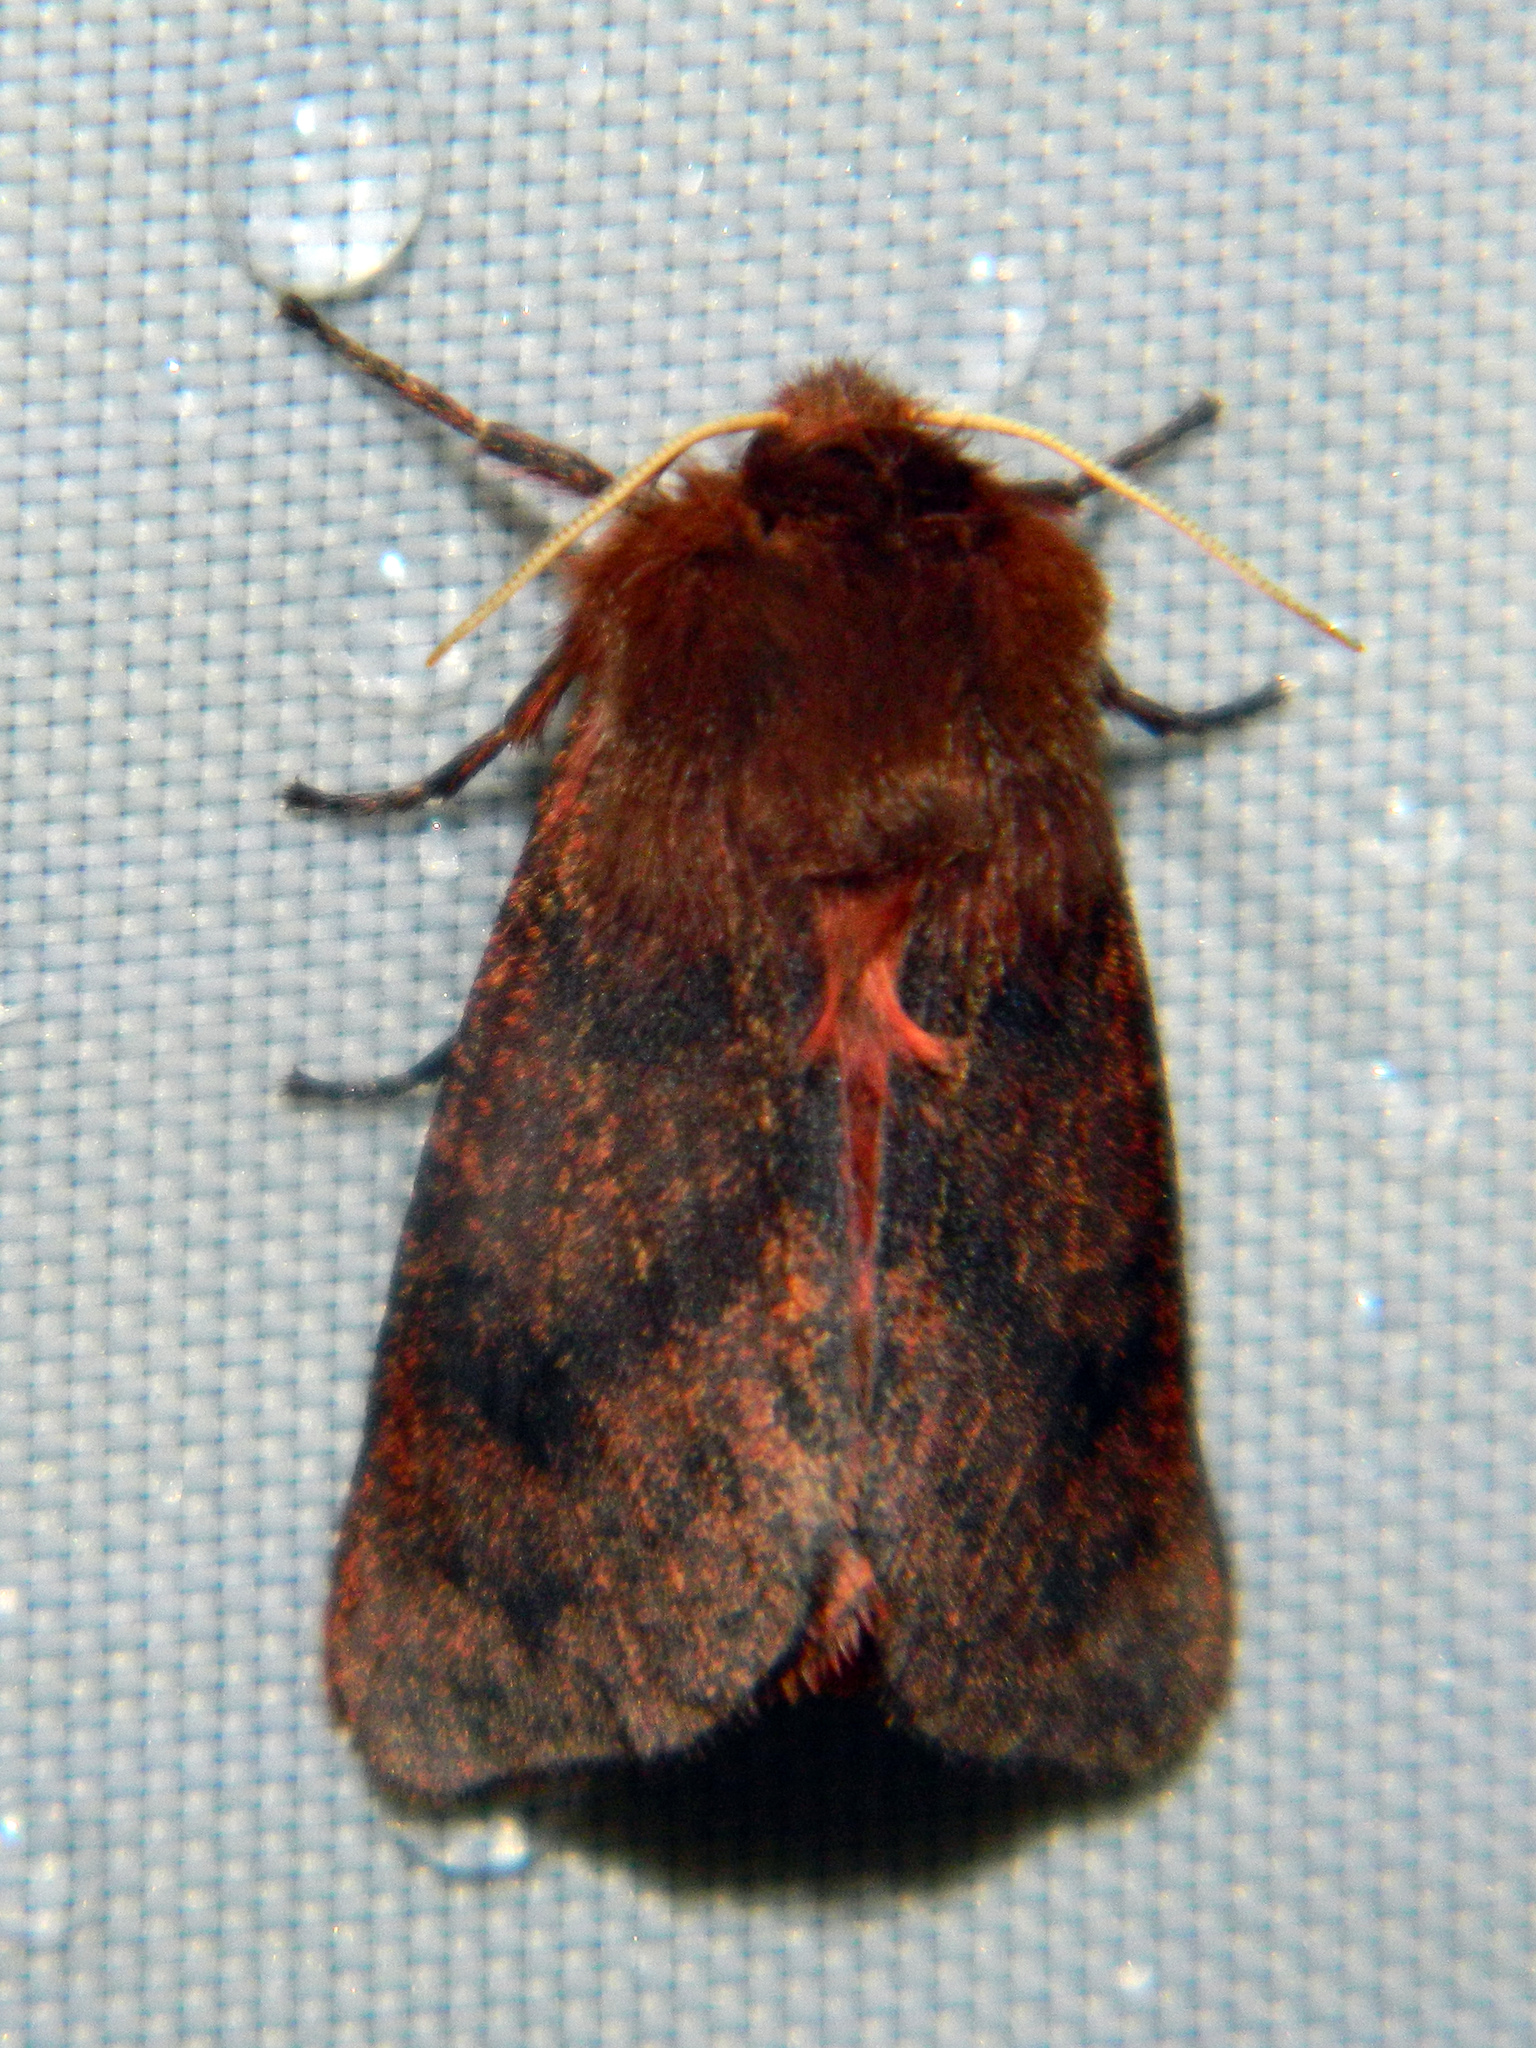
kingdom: Animalia
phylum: Arthropoda
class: Insecta
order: Lepidoptera
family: Erebidae
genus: Phragmatobia
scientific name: Phragmatobia assimilans
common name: Large ruby tiger moth
